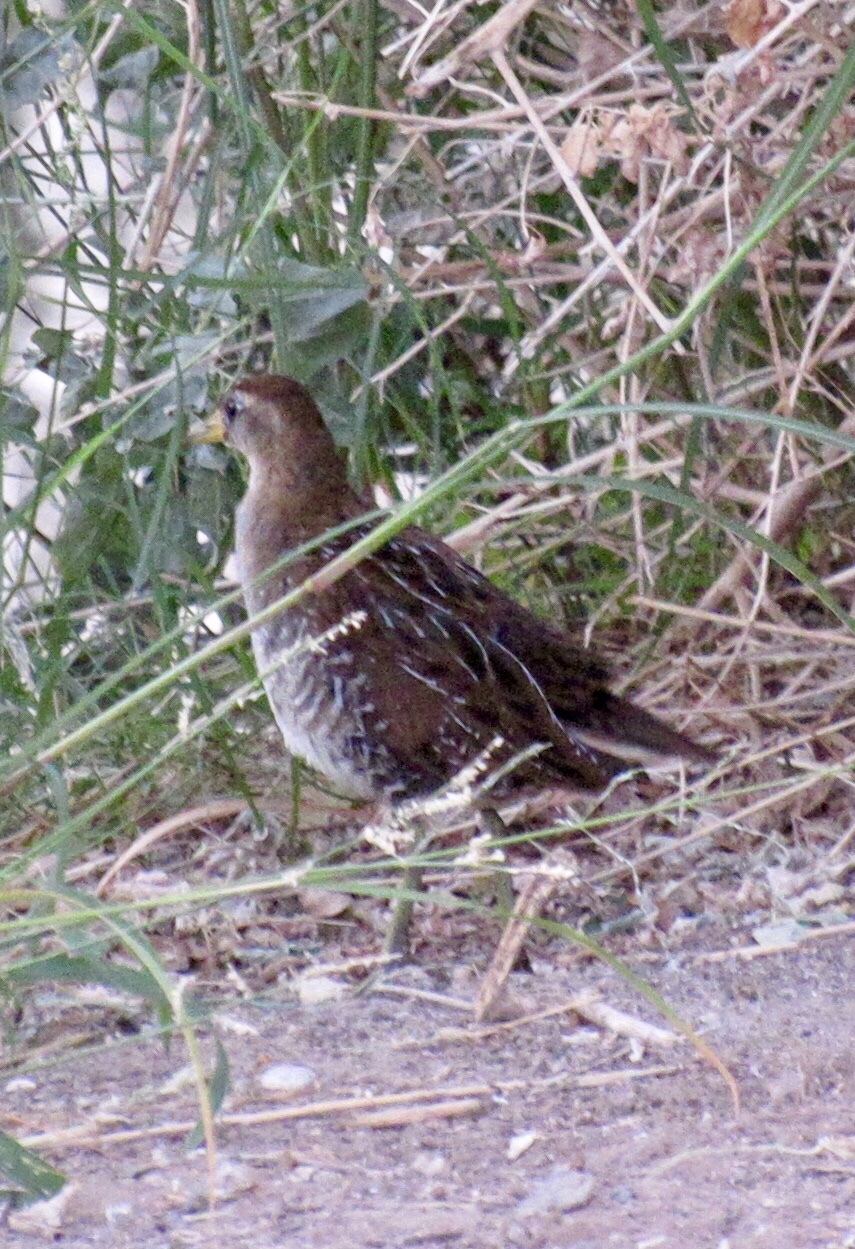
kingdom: Animalia
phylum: Chordata
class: Aves
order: Gruiformes
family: Rallidae
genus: Porzana
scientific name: Porzana carolina
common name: Sora
